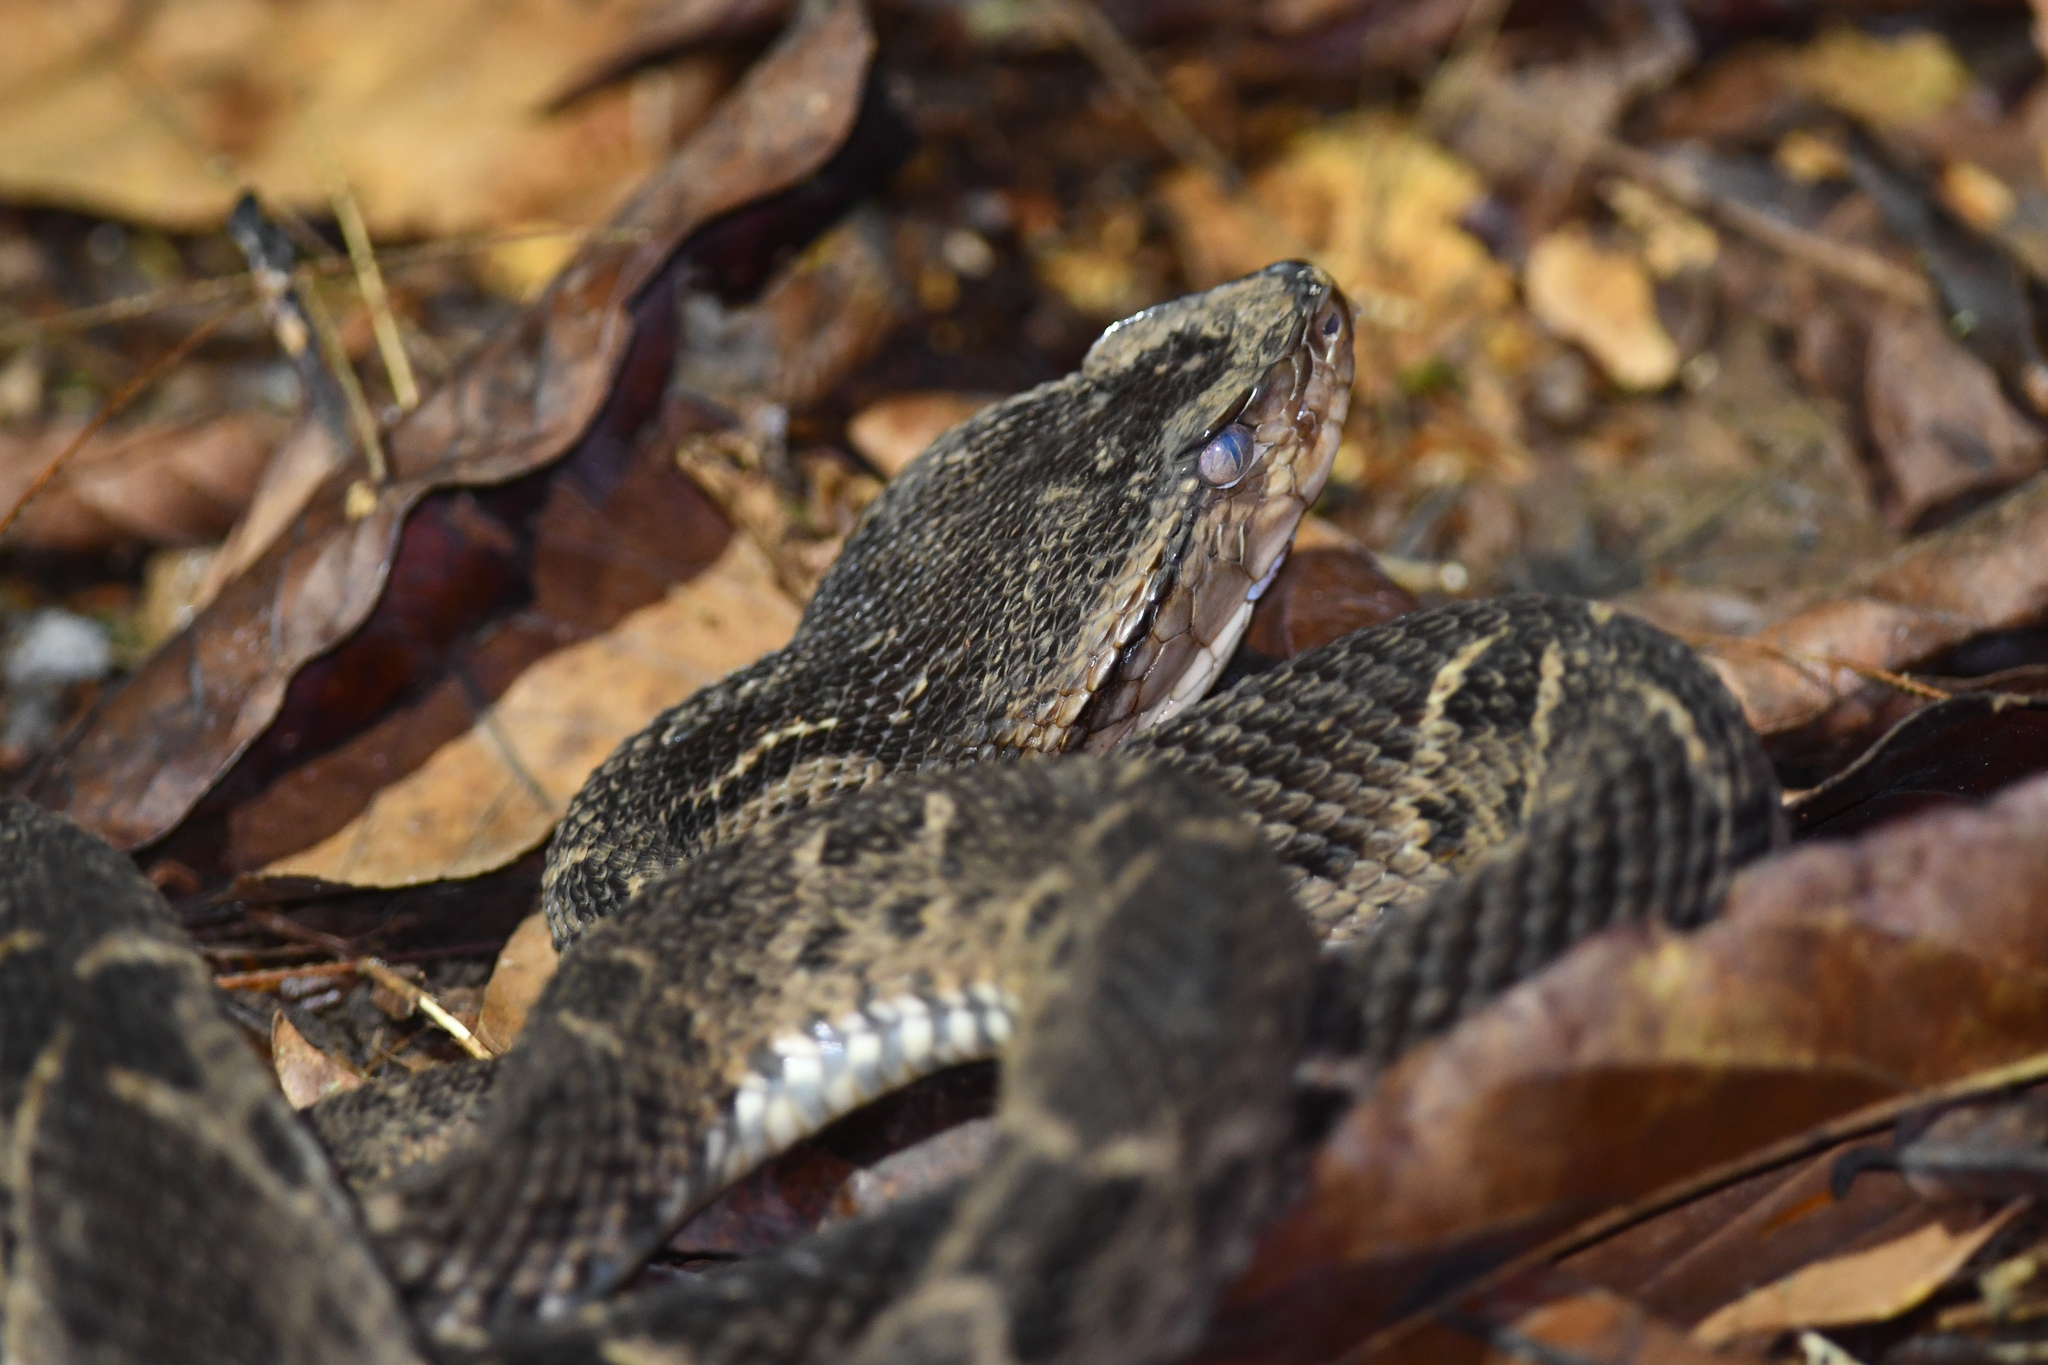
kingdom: Animalia
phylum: Chordata
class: Squamata
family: Viperidae
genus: Bothrops
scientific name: Bothrops asper
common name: Terciopelo
